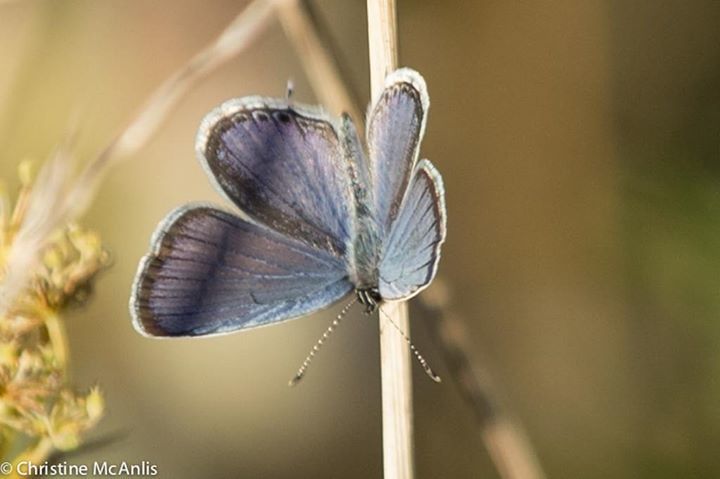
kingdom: Animalia
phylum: Arthropoda
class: Insecta
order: Lepidoptera
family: Lycaenidae
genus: Elkalyce
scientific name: Elkalyce comyntas
